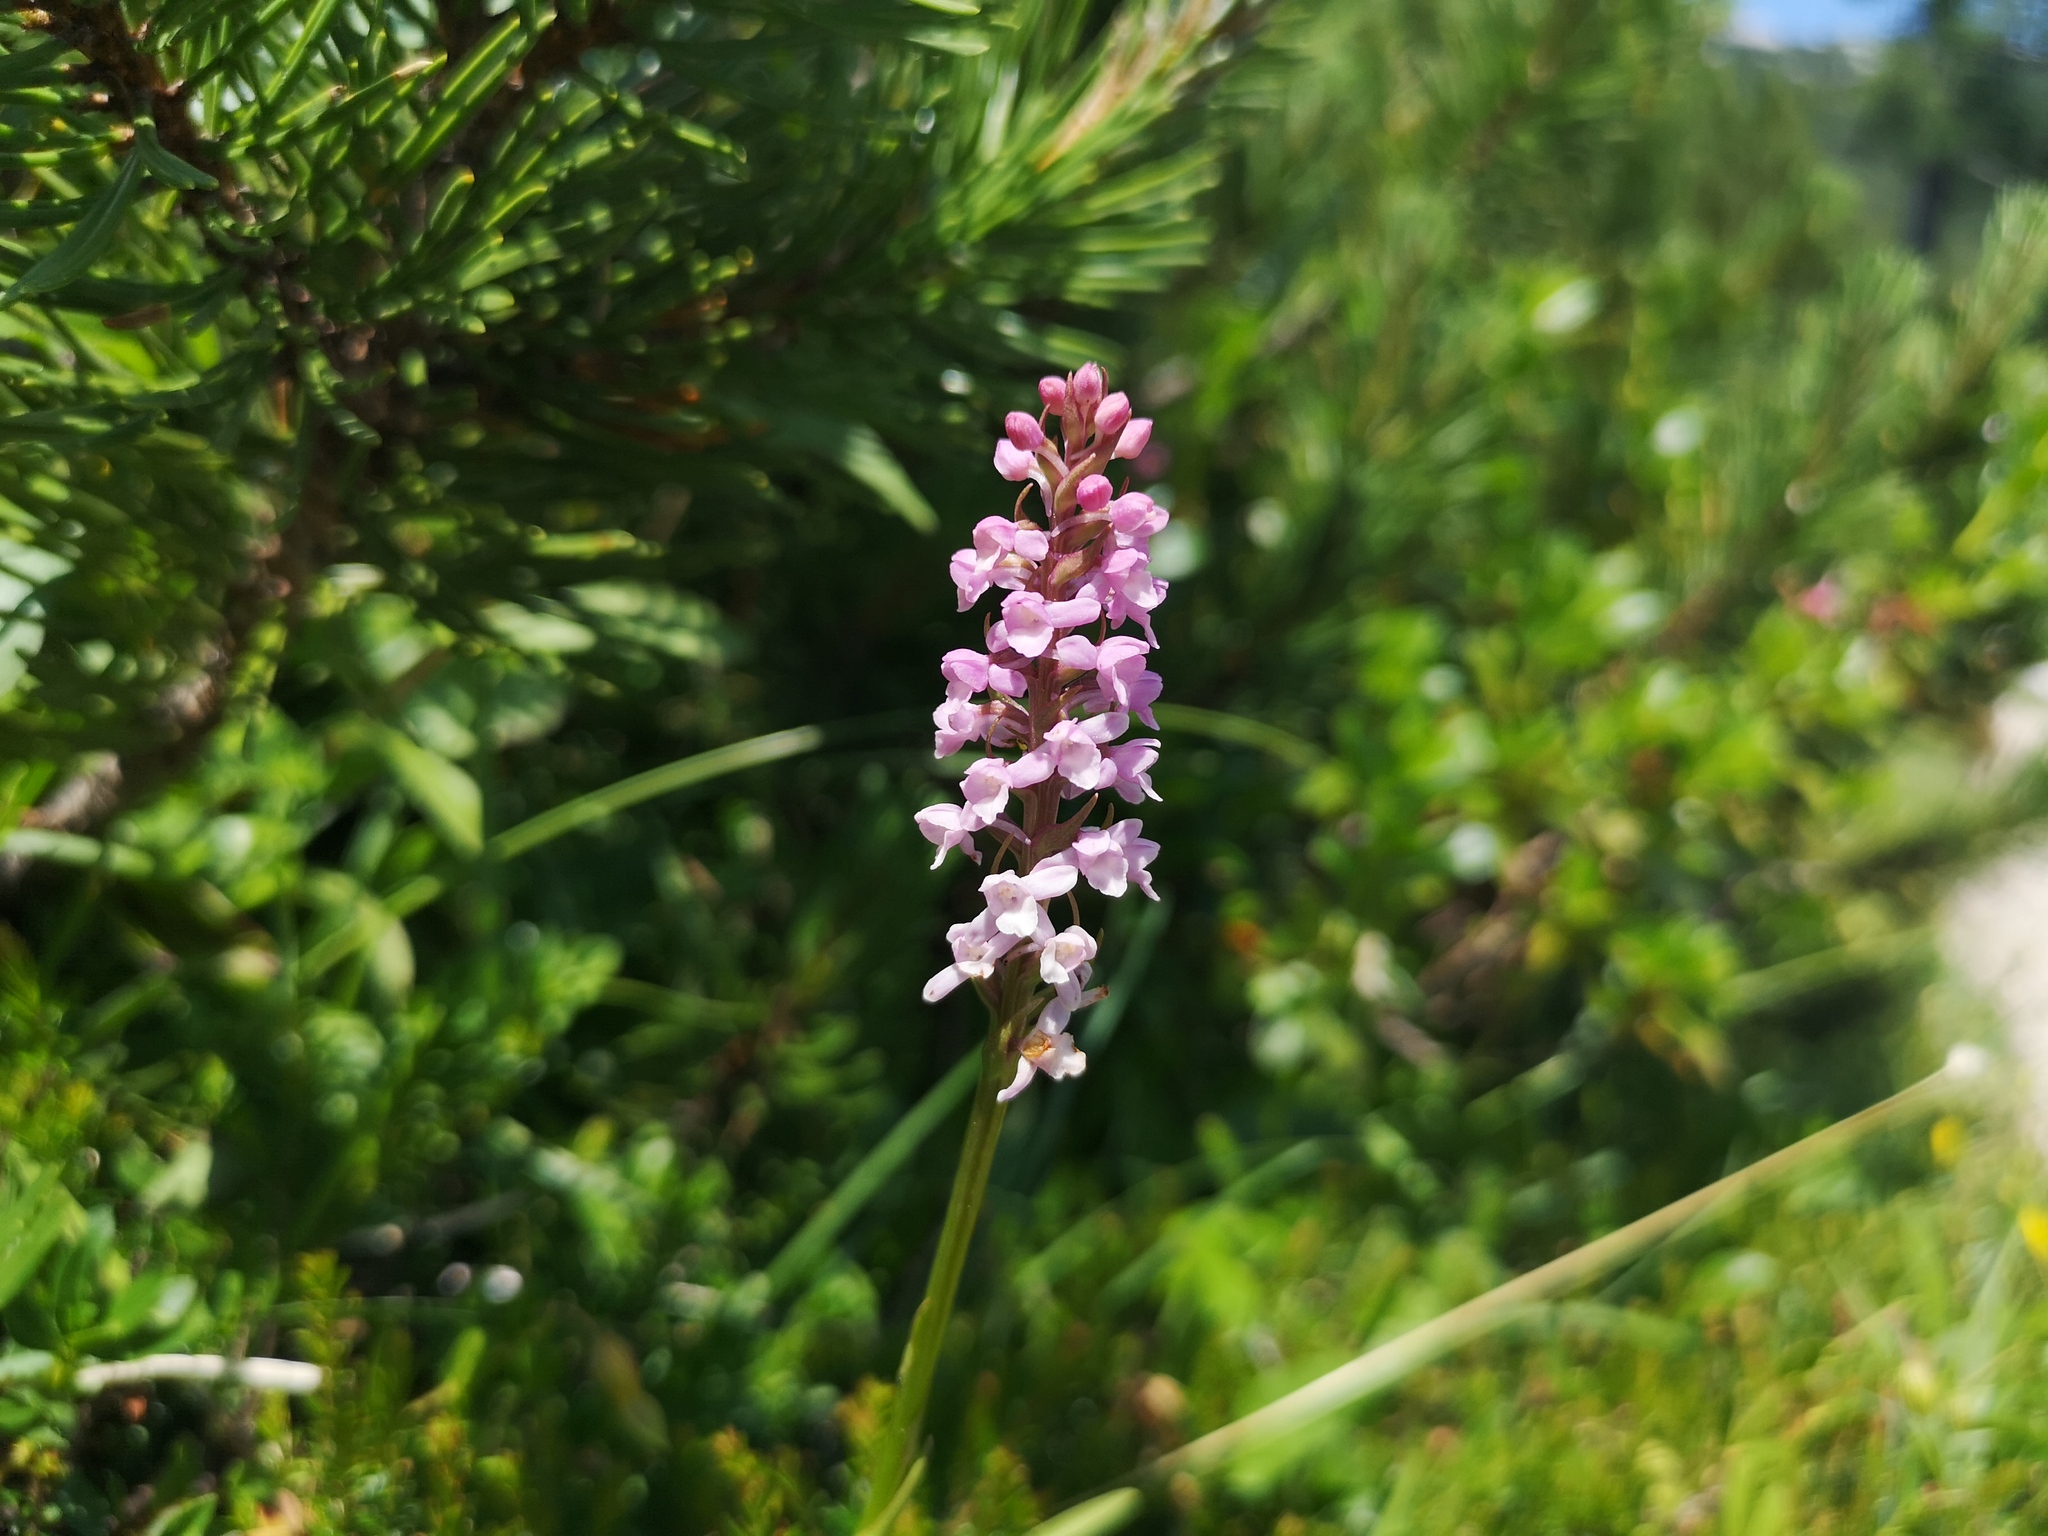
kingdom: Plantae
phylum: Tracheophyta
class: Liliopsida
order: Asparagales
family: Orchidaceae
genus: Gymnadenia
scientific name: Gymnadenia odoratissima
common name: Scented gymnadenia
